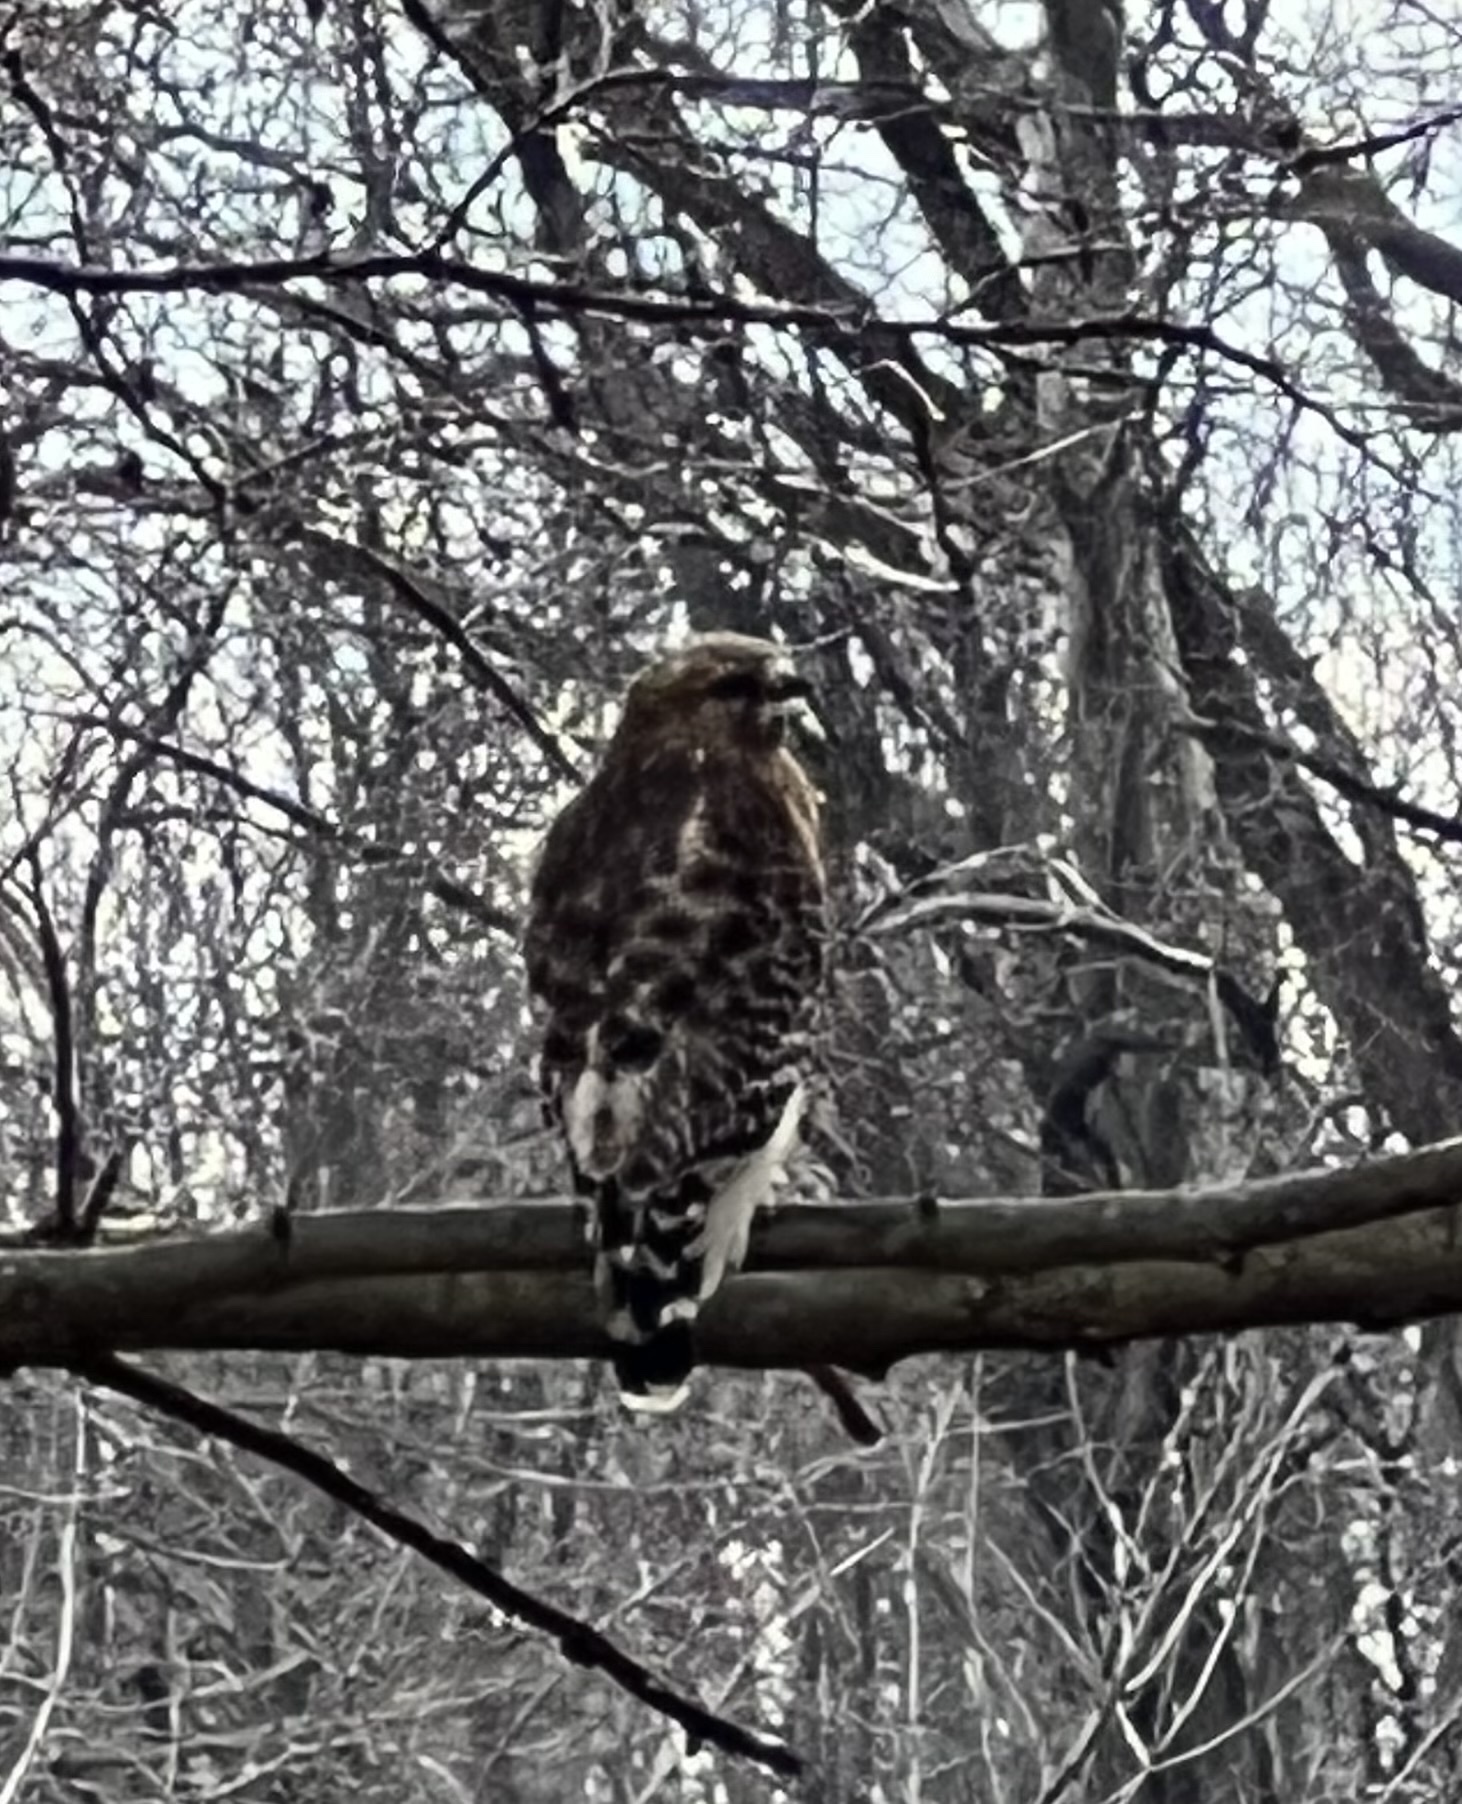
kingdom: Animalia
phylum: Chordata
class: Aves
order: Accipitriformes
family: Accipitridae
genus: Buteo
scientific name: Buteo lineatus
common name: Red-shouldered hawk
